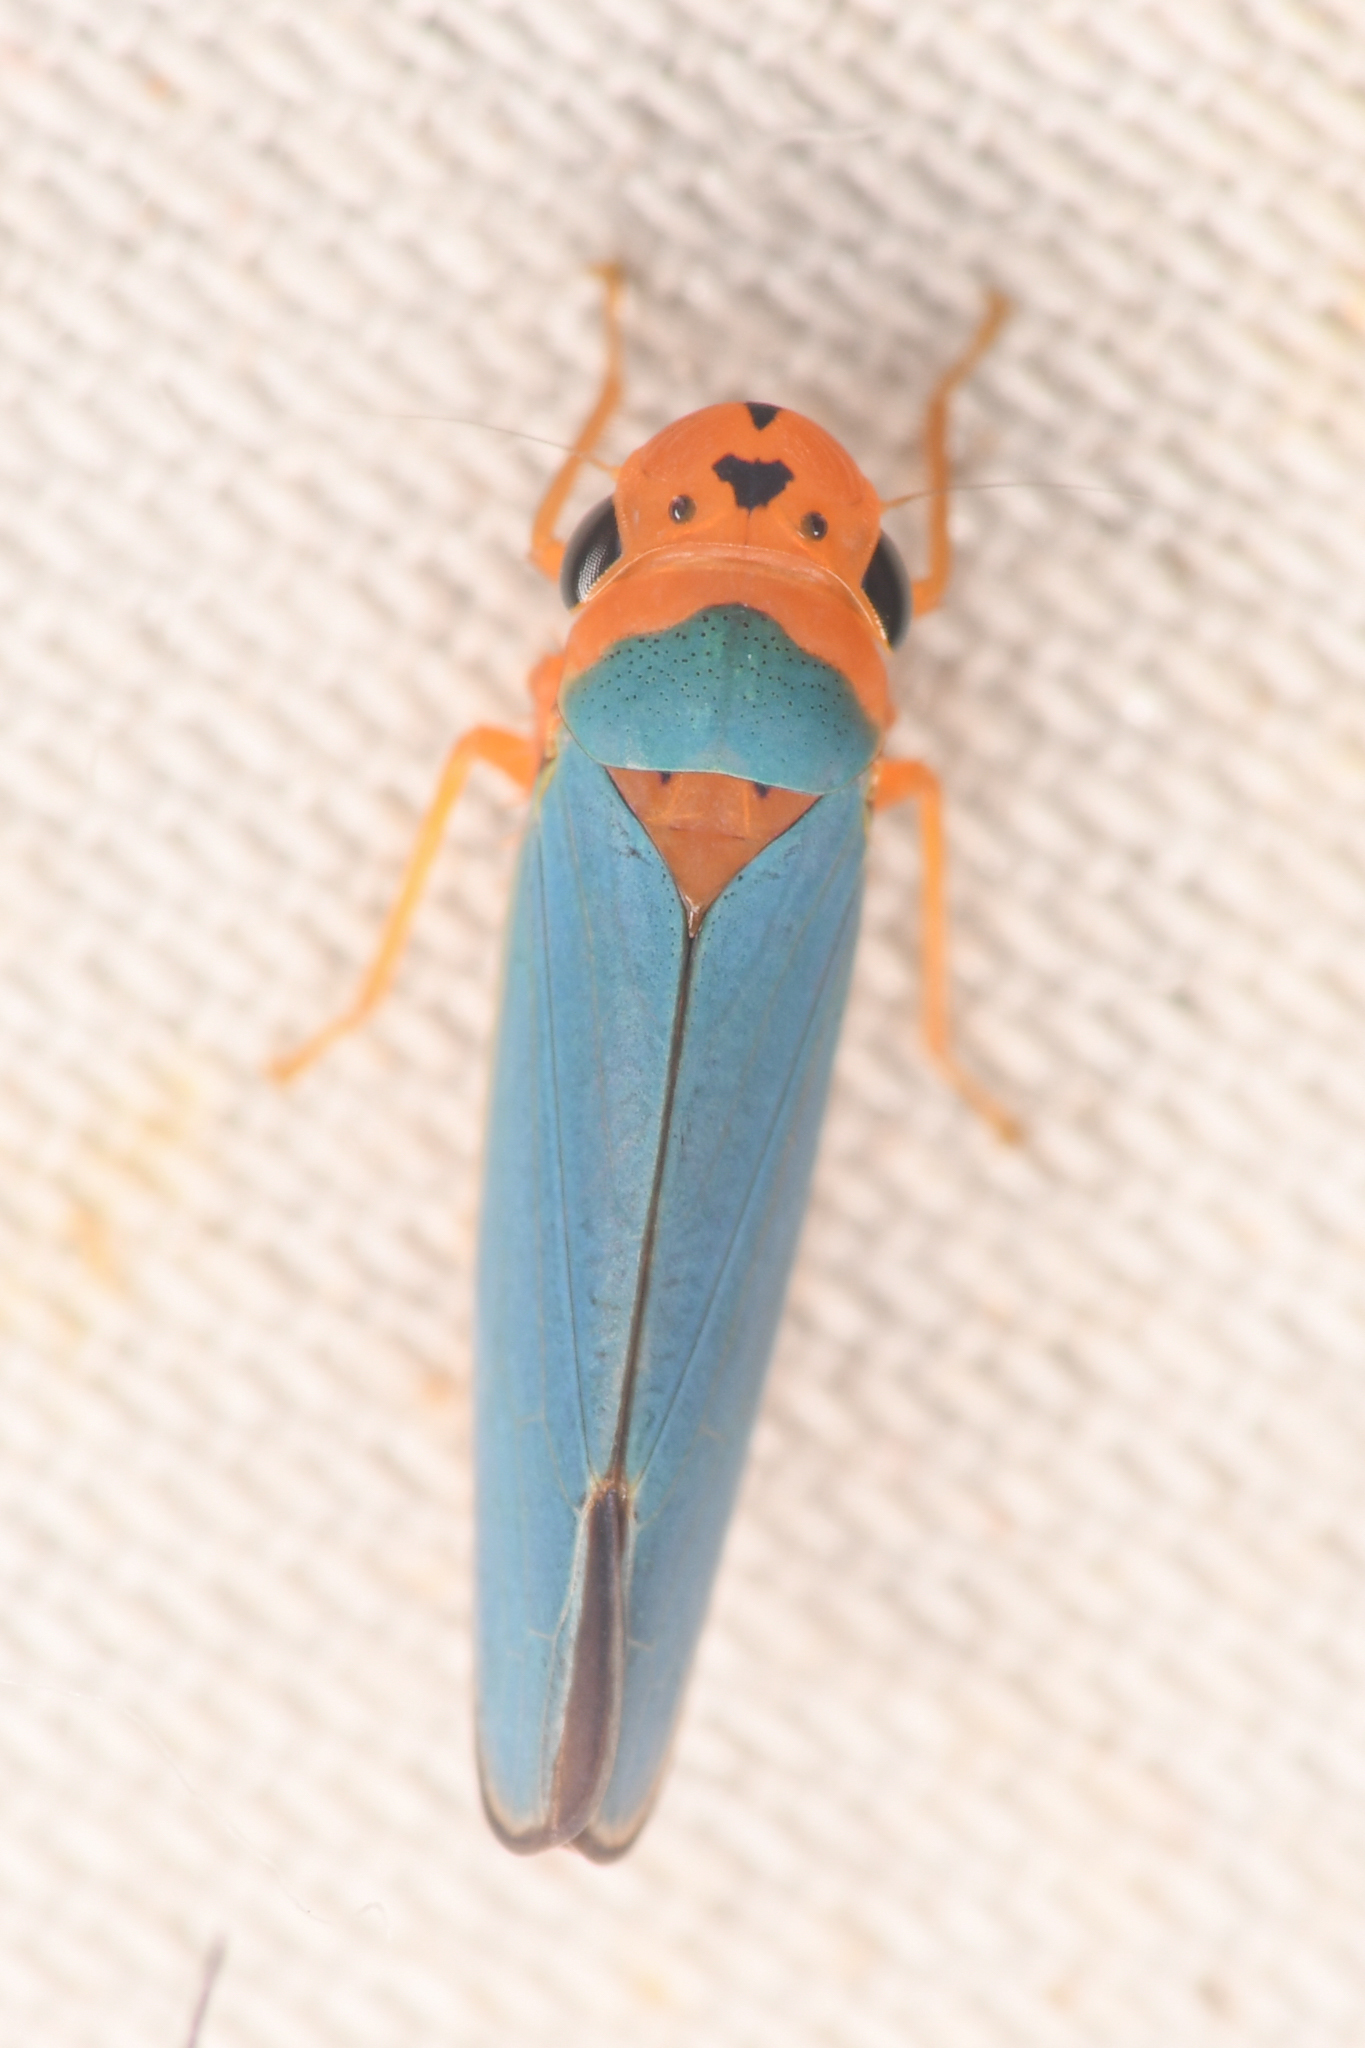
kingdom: Animalia
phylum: Arthropoda
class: Insecta
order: Hemiptera
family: Cicadellidae
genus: Macunolla
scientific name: Macunolla ventralis
